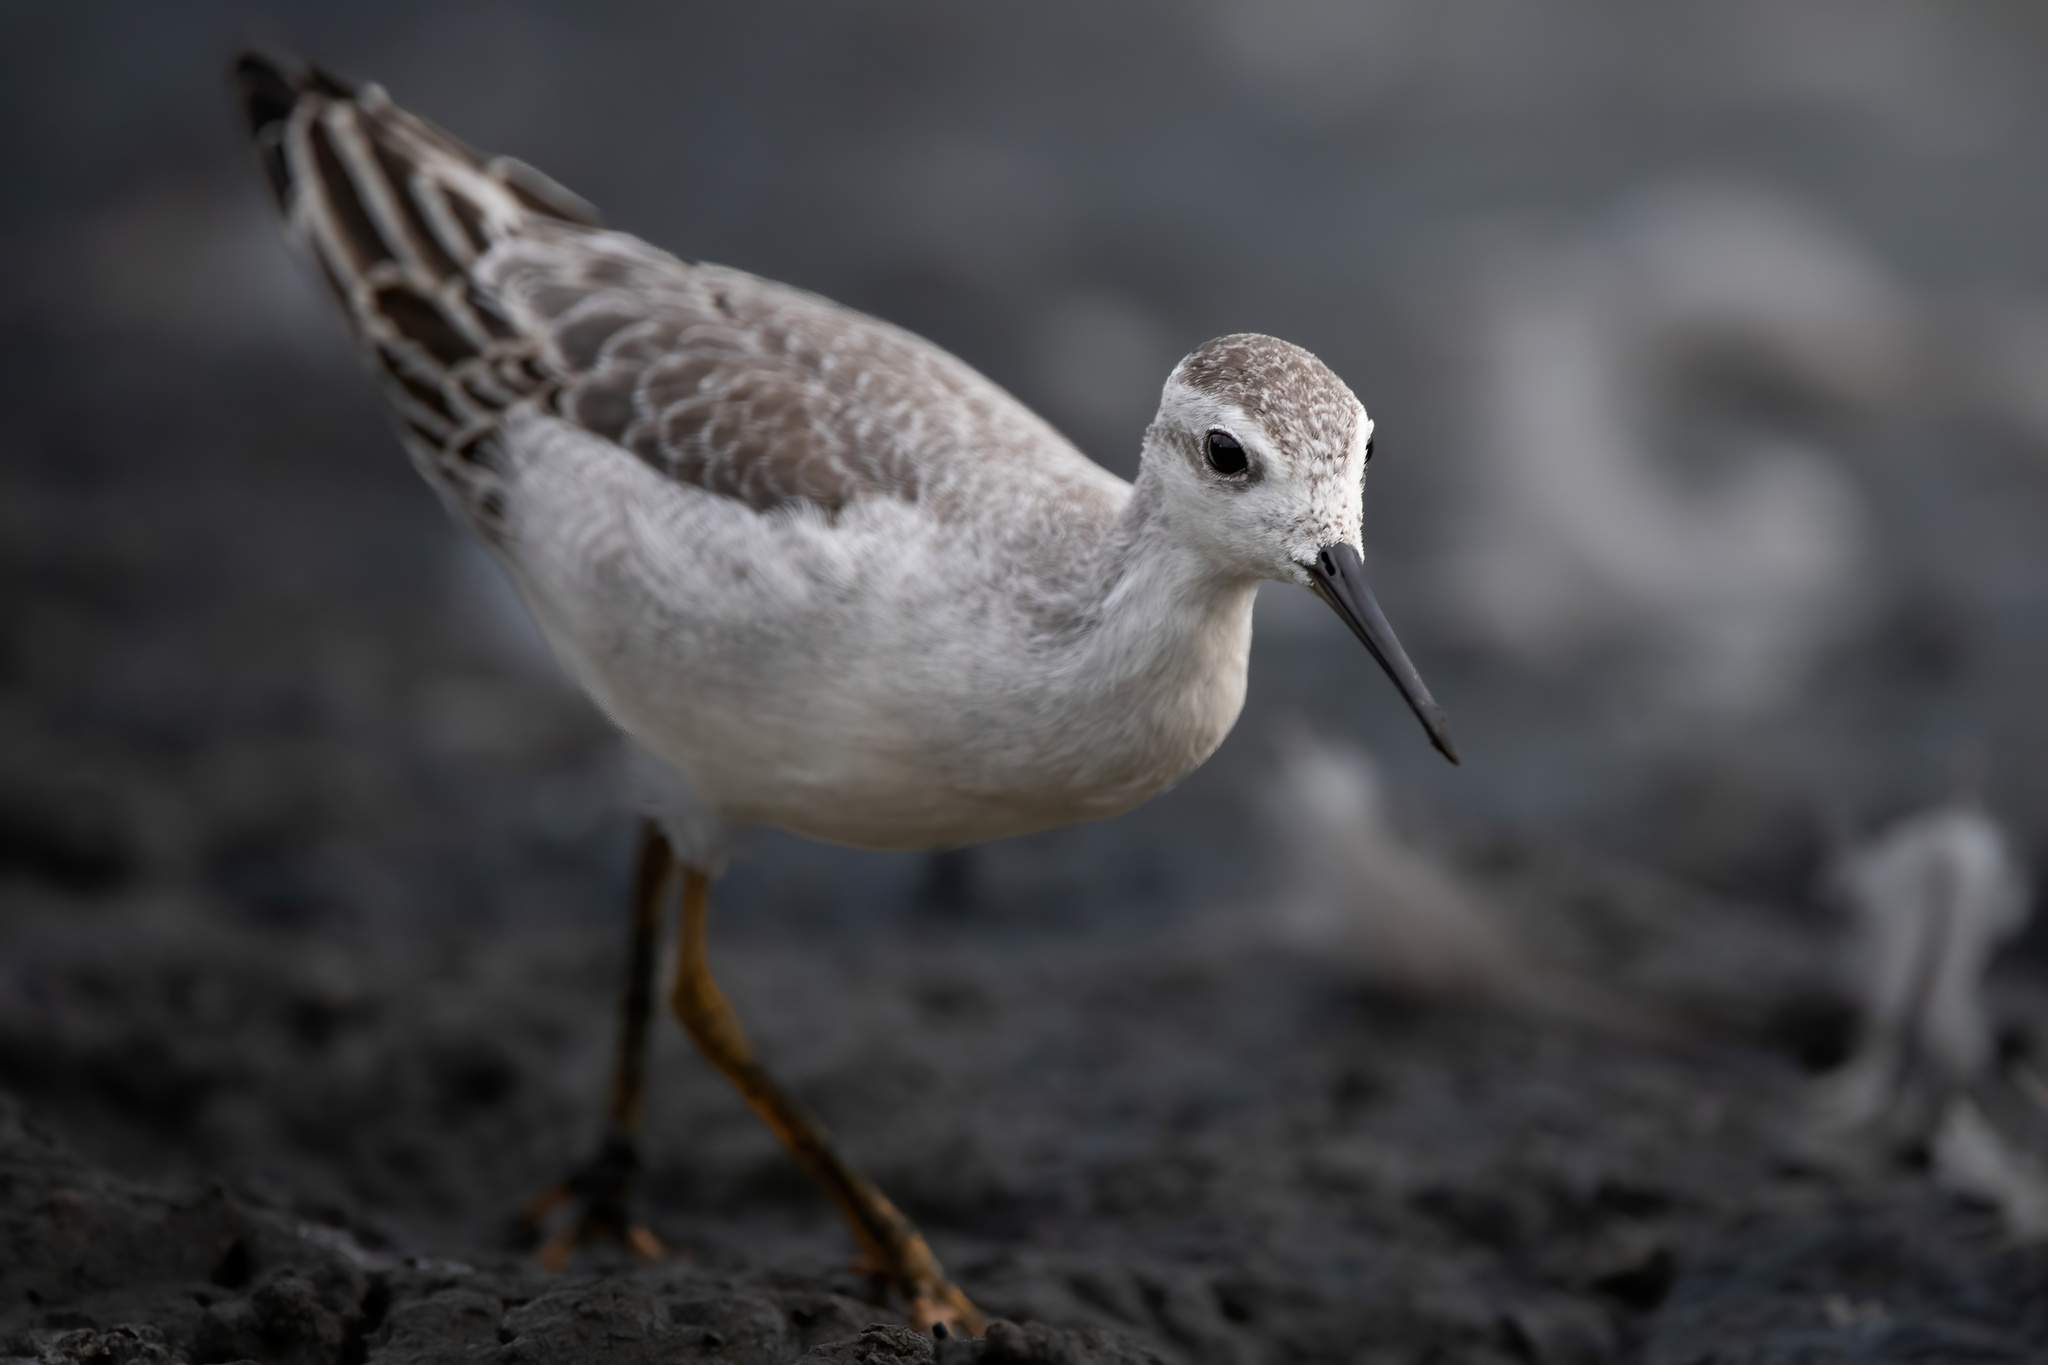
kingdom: Animalia
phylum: Chordata
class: Aves
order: Charadriiformes
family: Scolopacidae
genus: Phalaropus
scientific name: Phalaropus tricolor
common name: Wilson's phalarope
